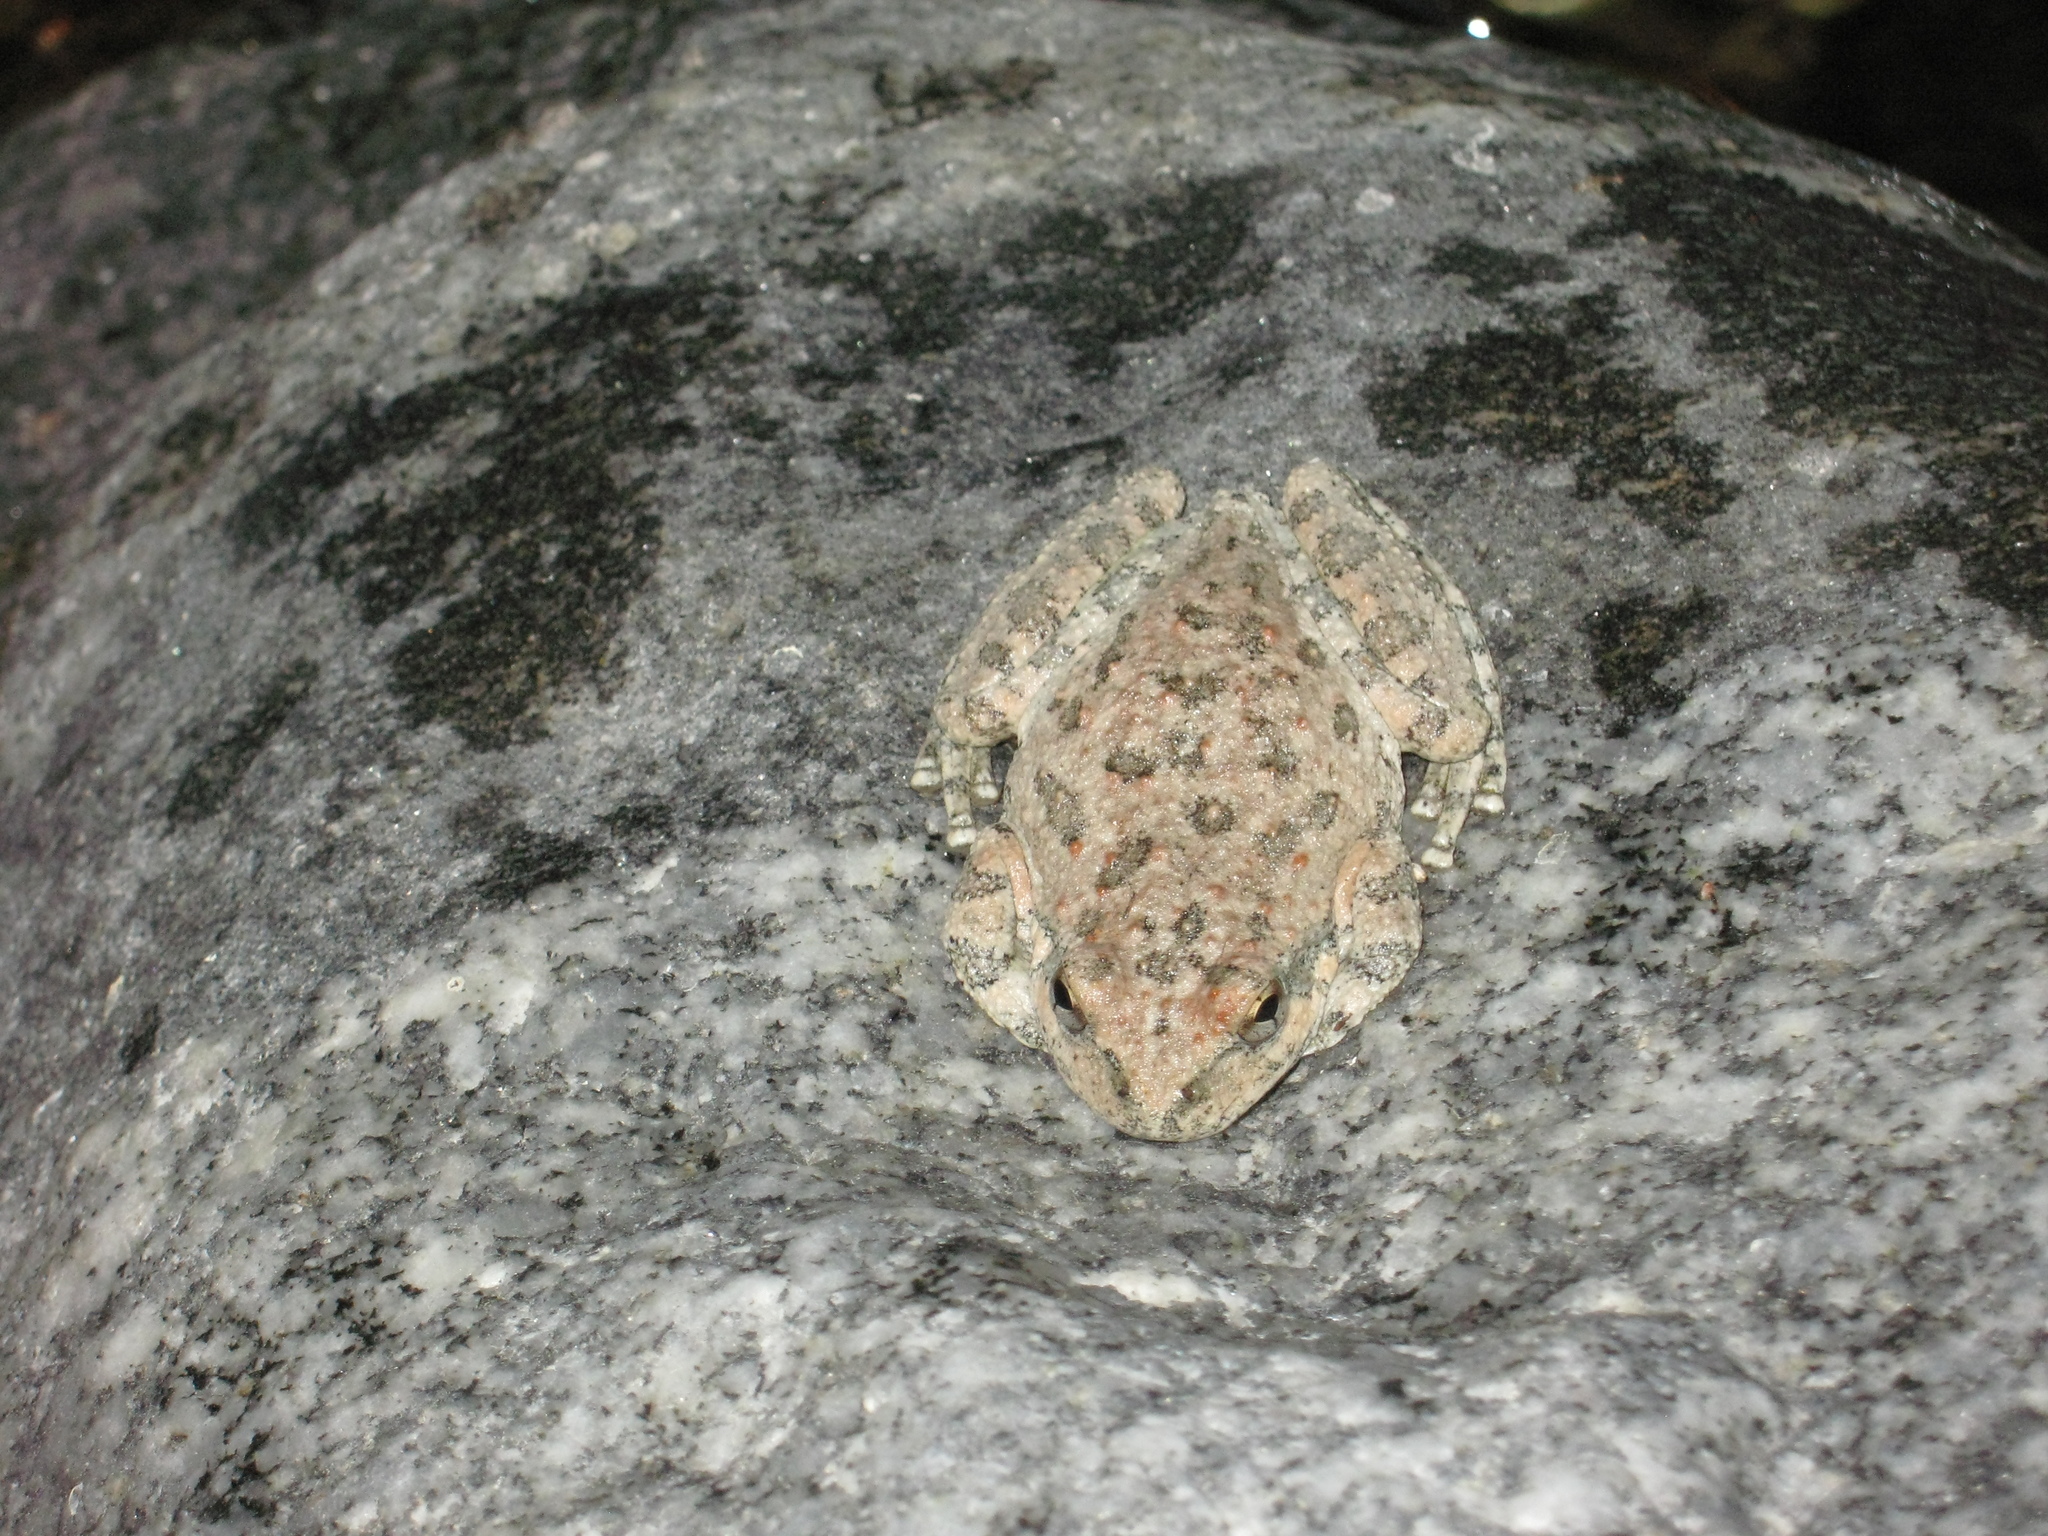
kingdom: Animalia
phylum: Chordata
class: Amphibia
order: Anura
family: Hylidae
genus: Pseudacris
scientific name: Pseudacris cadaverina
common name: California chorus frog
